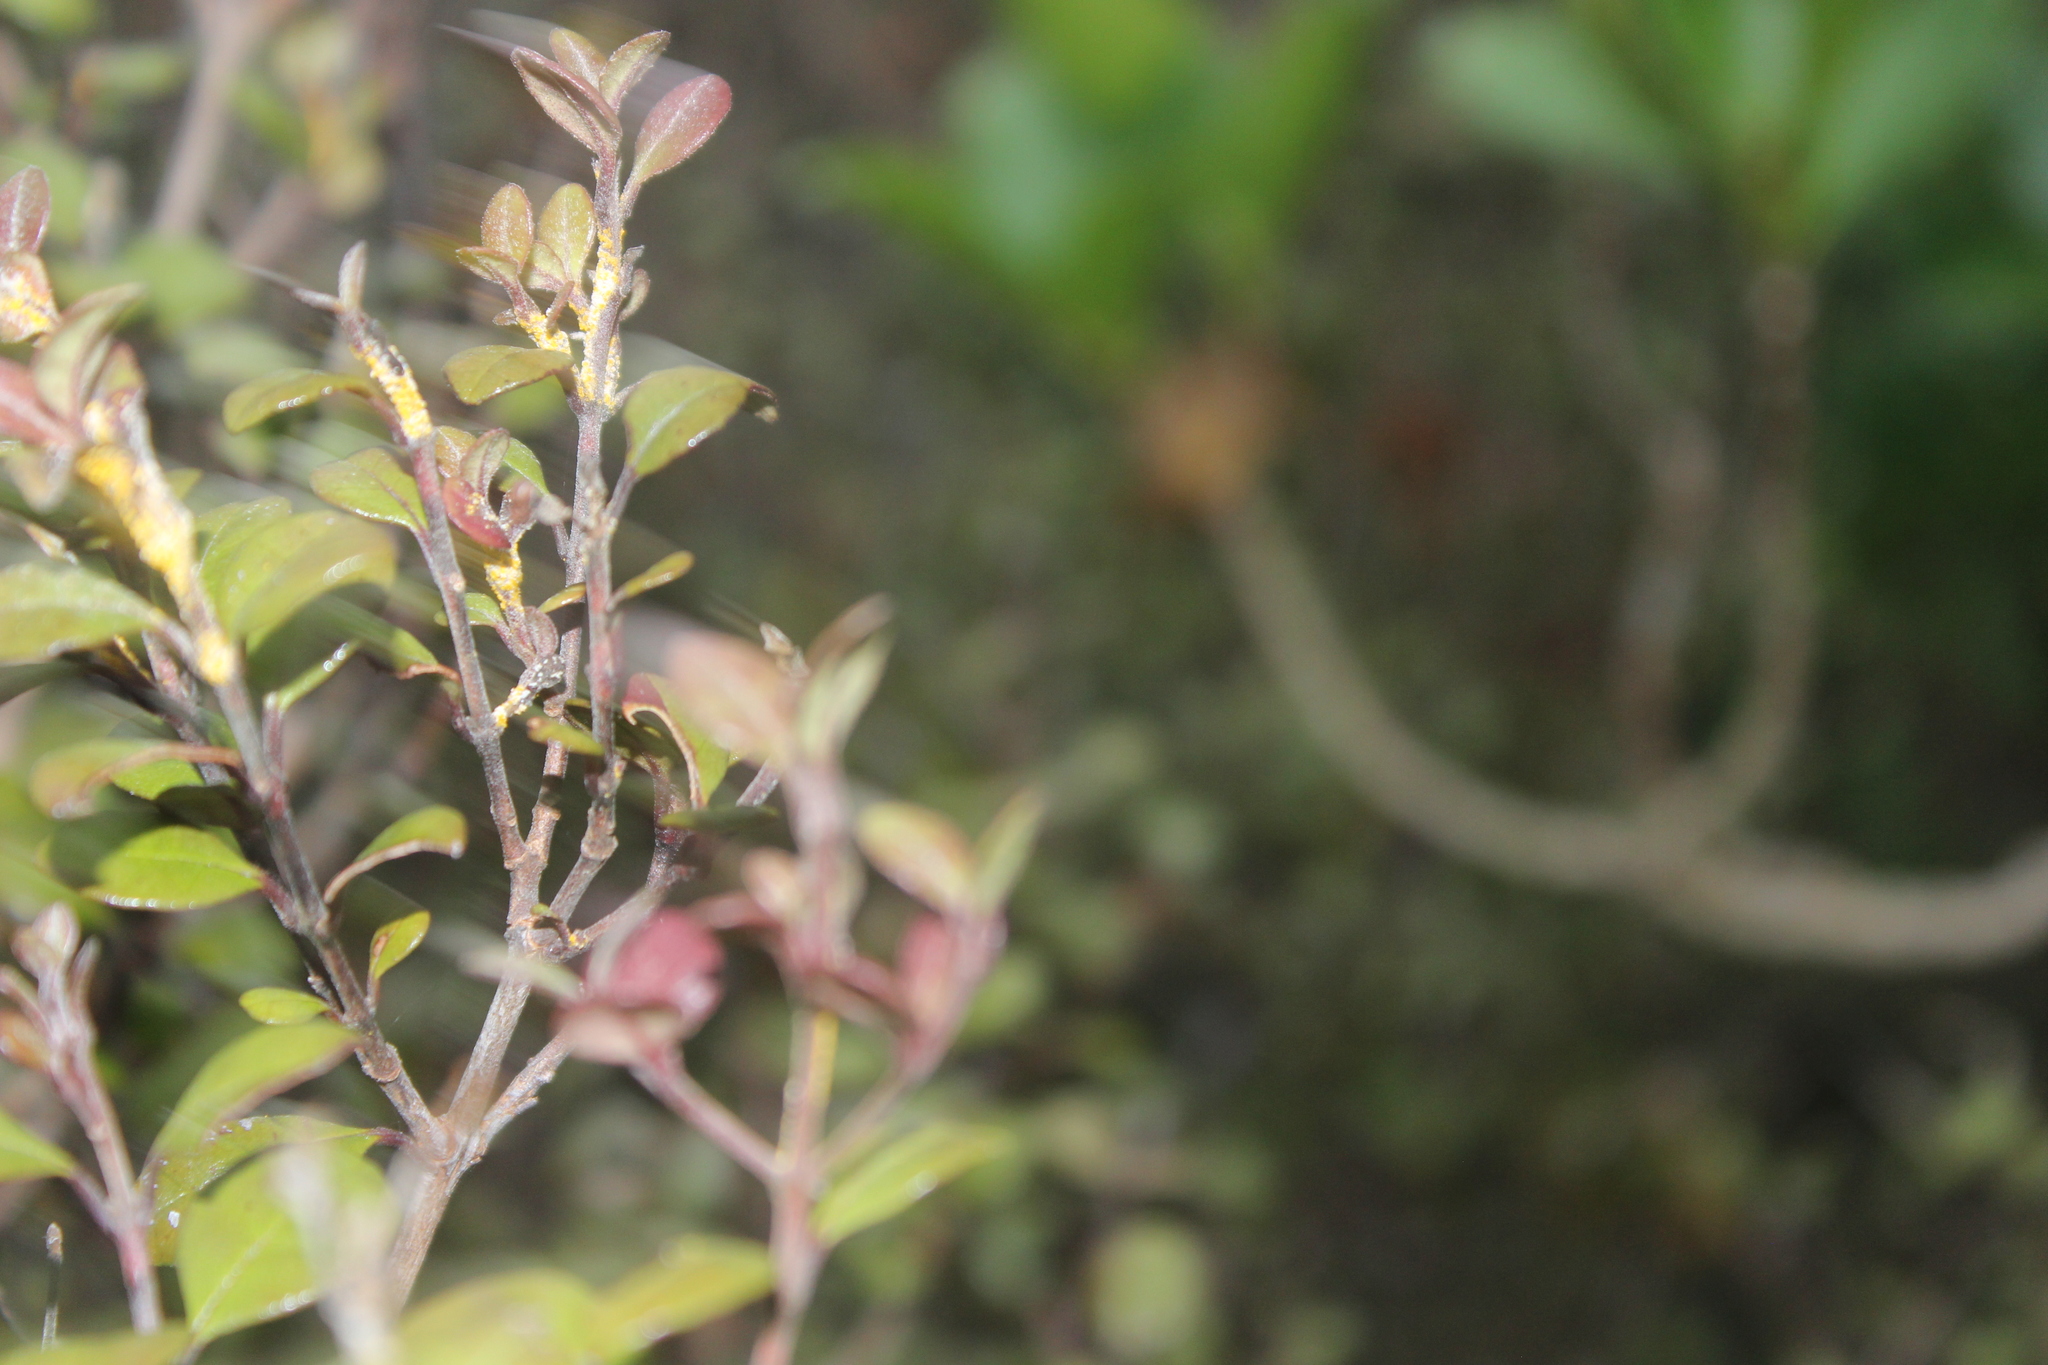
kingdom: Fungi
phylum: Basidiomycota
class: Pucciniomycetes
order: Pucciniales
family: Sphaerophragmiaceae
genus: Austropuccinia
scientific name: Austropuccinia psidii
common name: Myrtle rust
